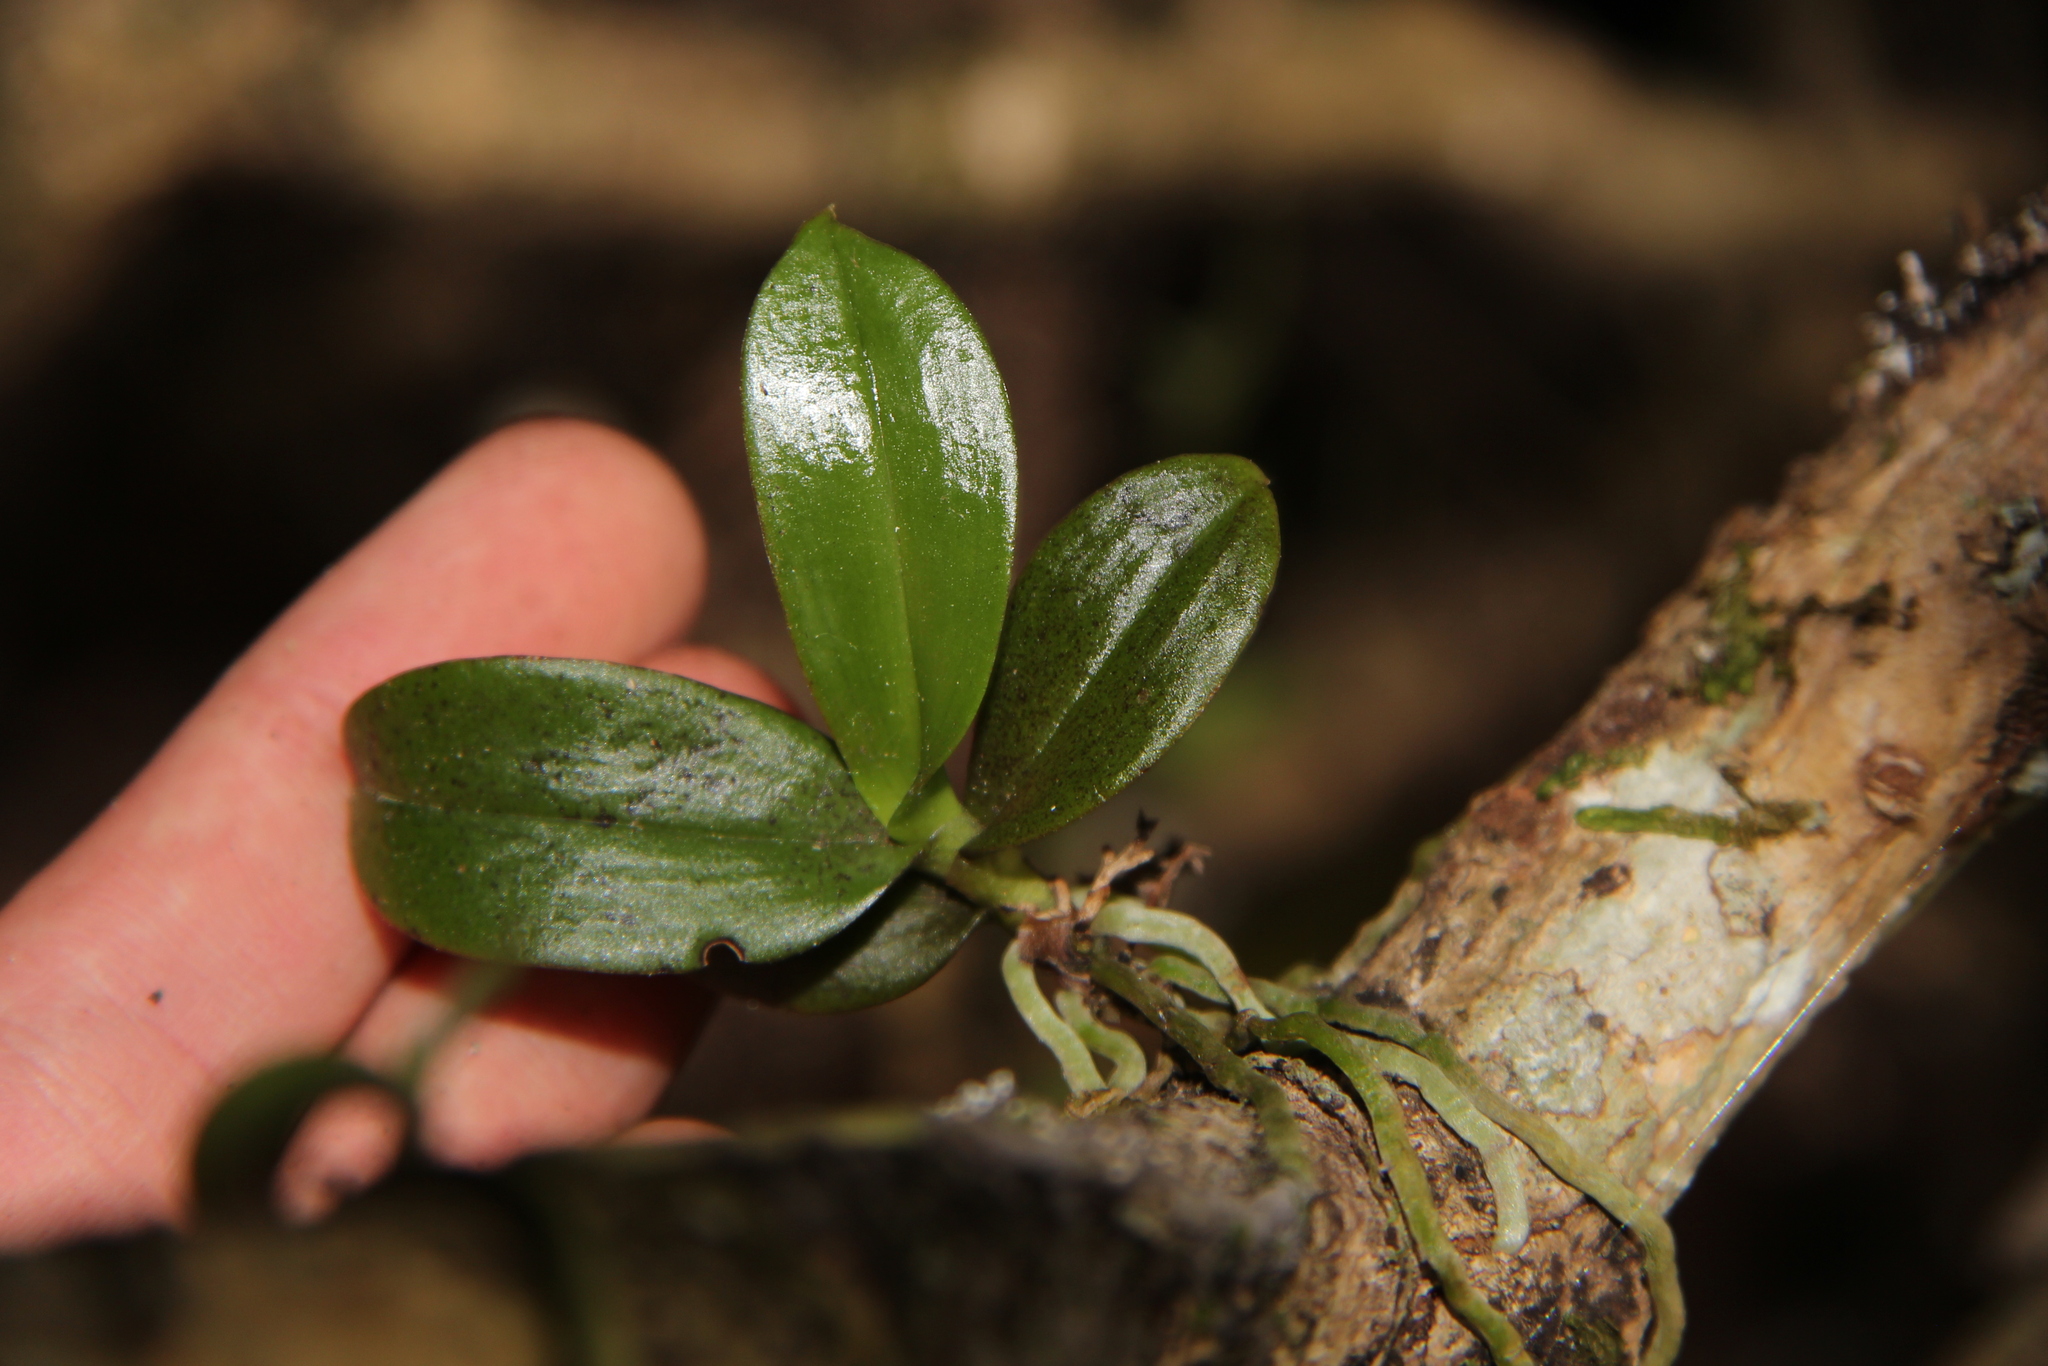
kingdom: Plantae
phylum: Tracheophyta
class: Liliopsida
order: Asparagales
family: Orchidaceae
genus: Drymoanthus
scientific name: Drymoanthus adversus
